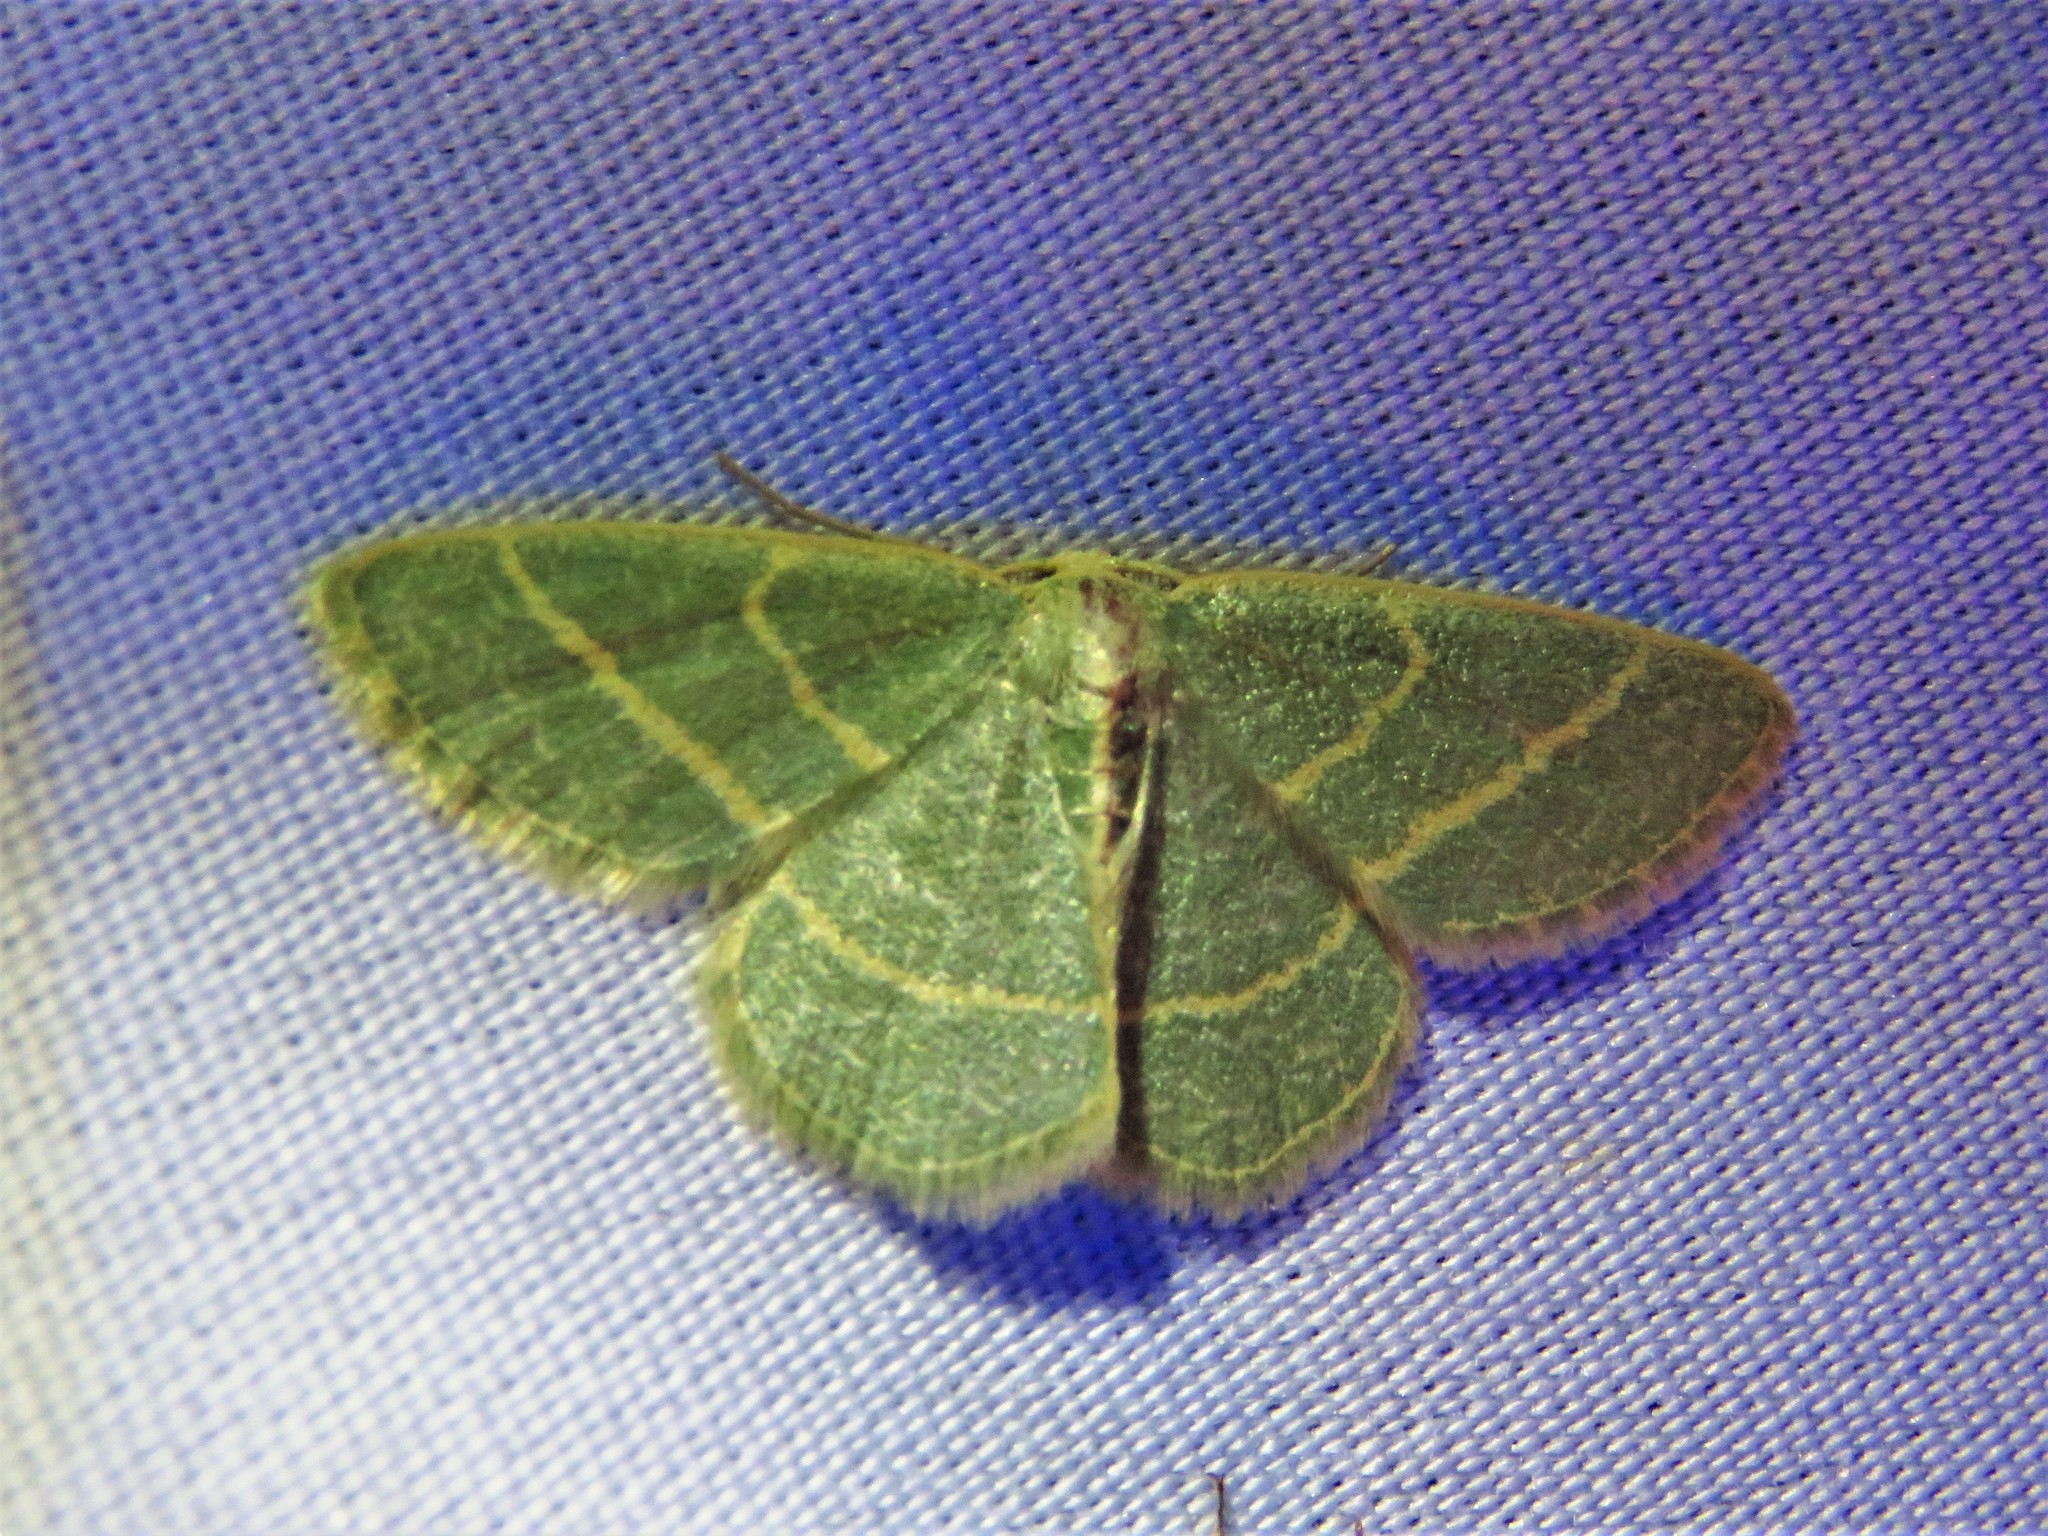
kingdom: Animalia
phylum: Arthropoda
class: Insecta
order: Lepidoptera
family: Geometridae
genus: Chlorochlamys
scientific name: Chlorochlamys chloroleucaria
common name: Blackberry looper
